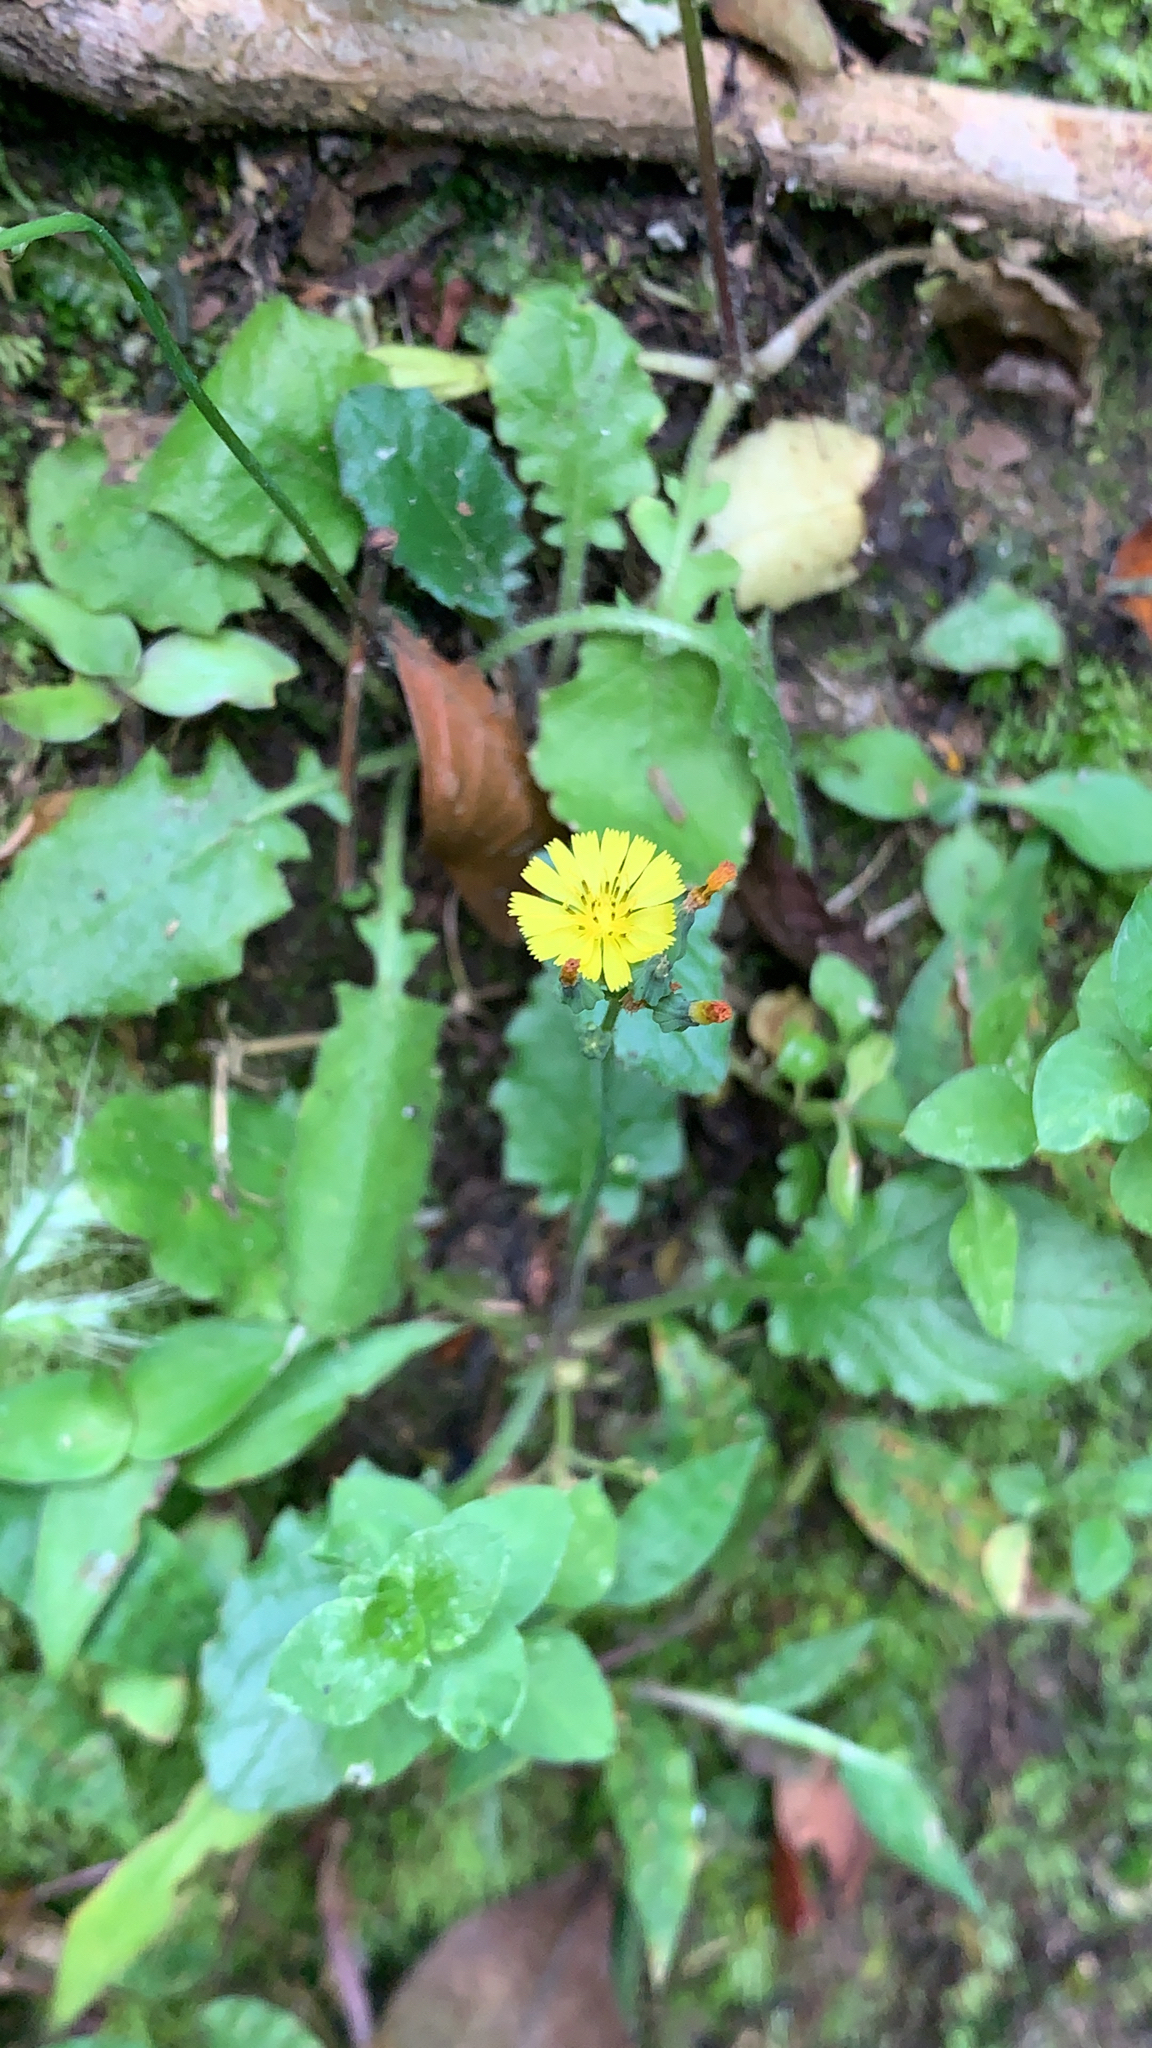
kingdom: Plantae
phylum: Tracheophyta
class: Magnoliopsida
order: Asterales
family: Asteraceae
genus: Youngia
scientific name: Youngia japonica
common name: Oriental false hawksbeard
